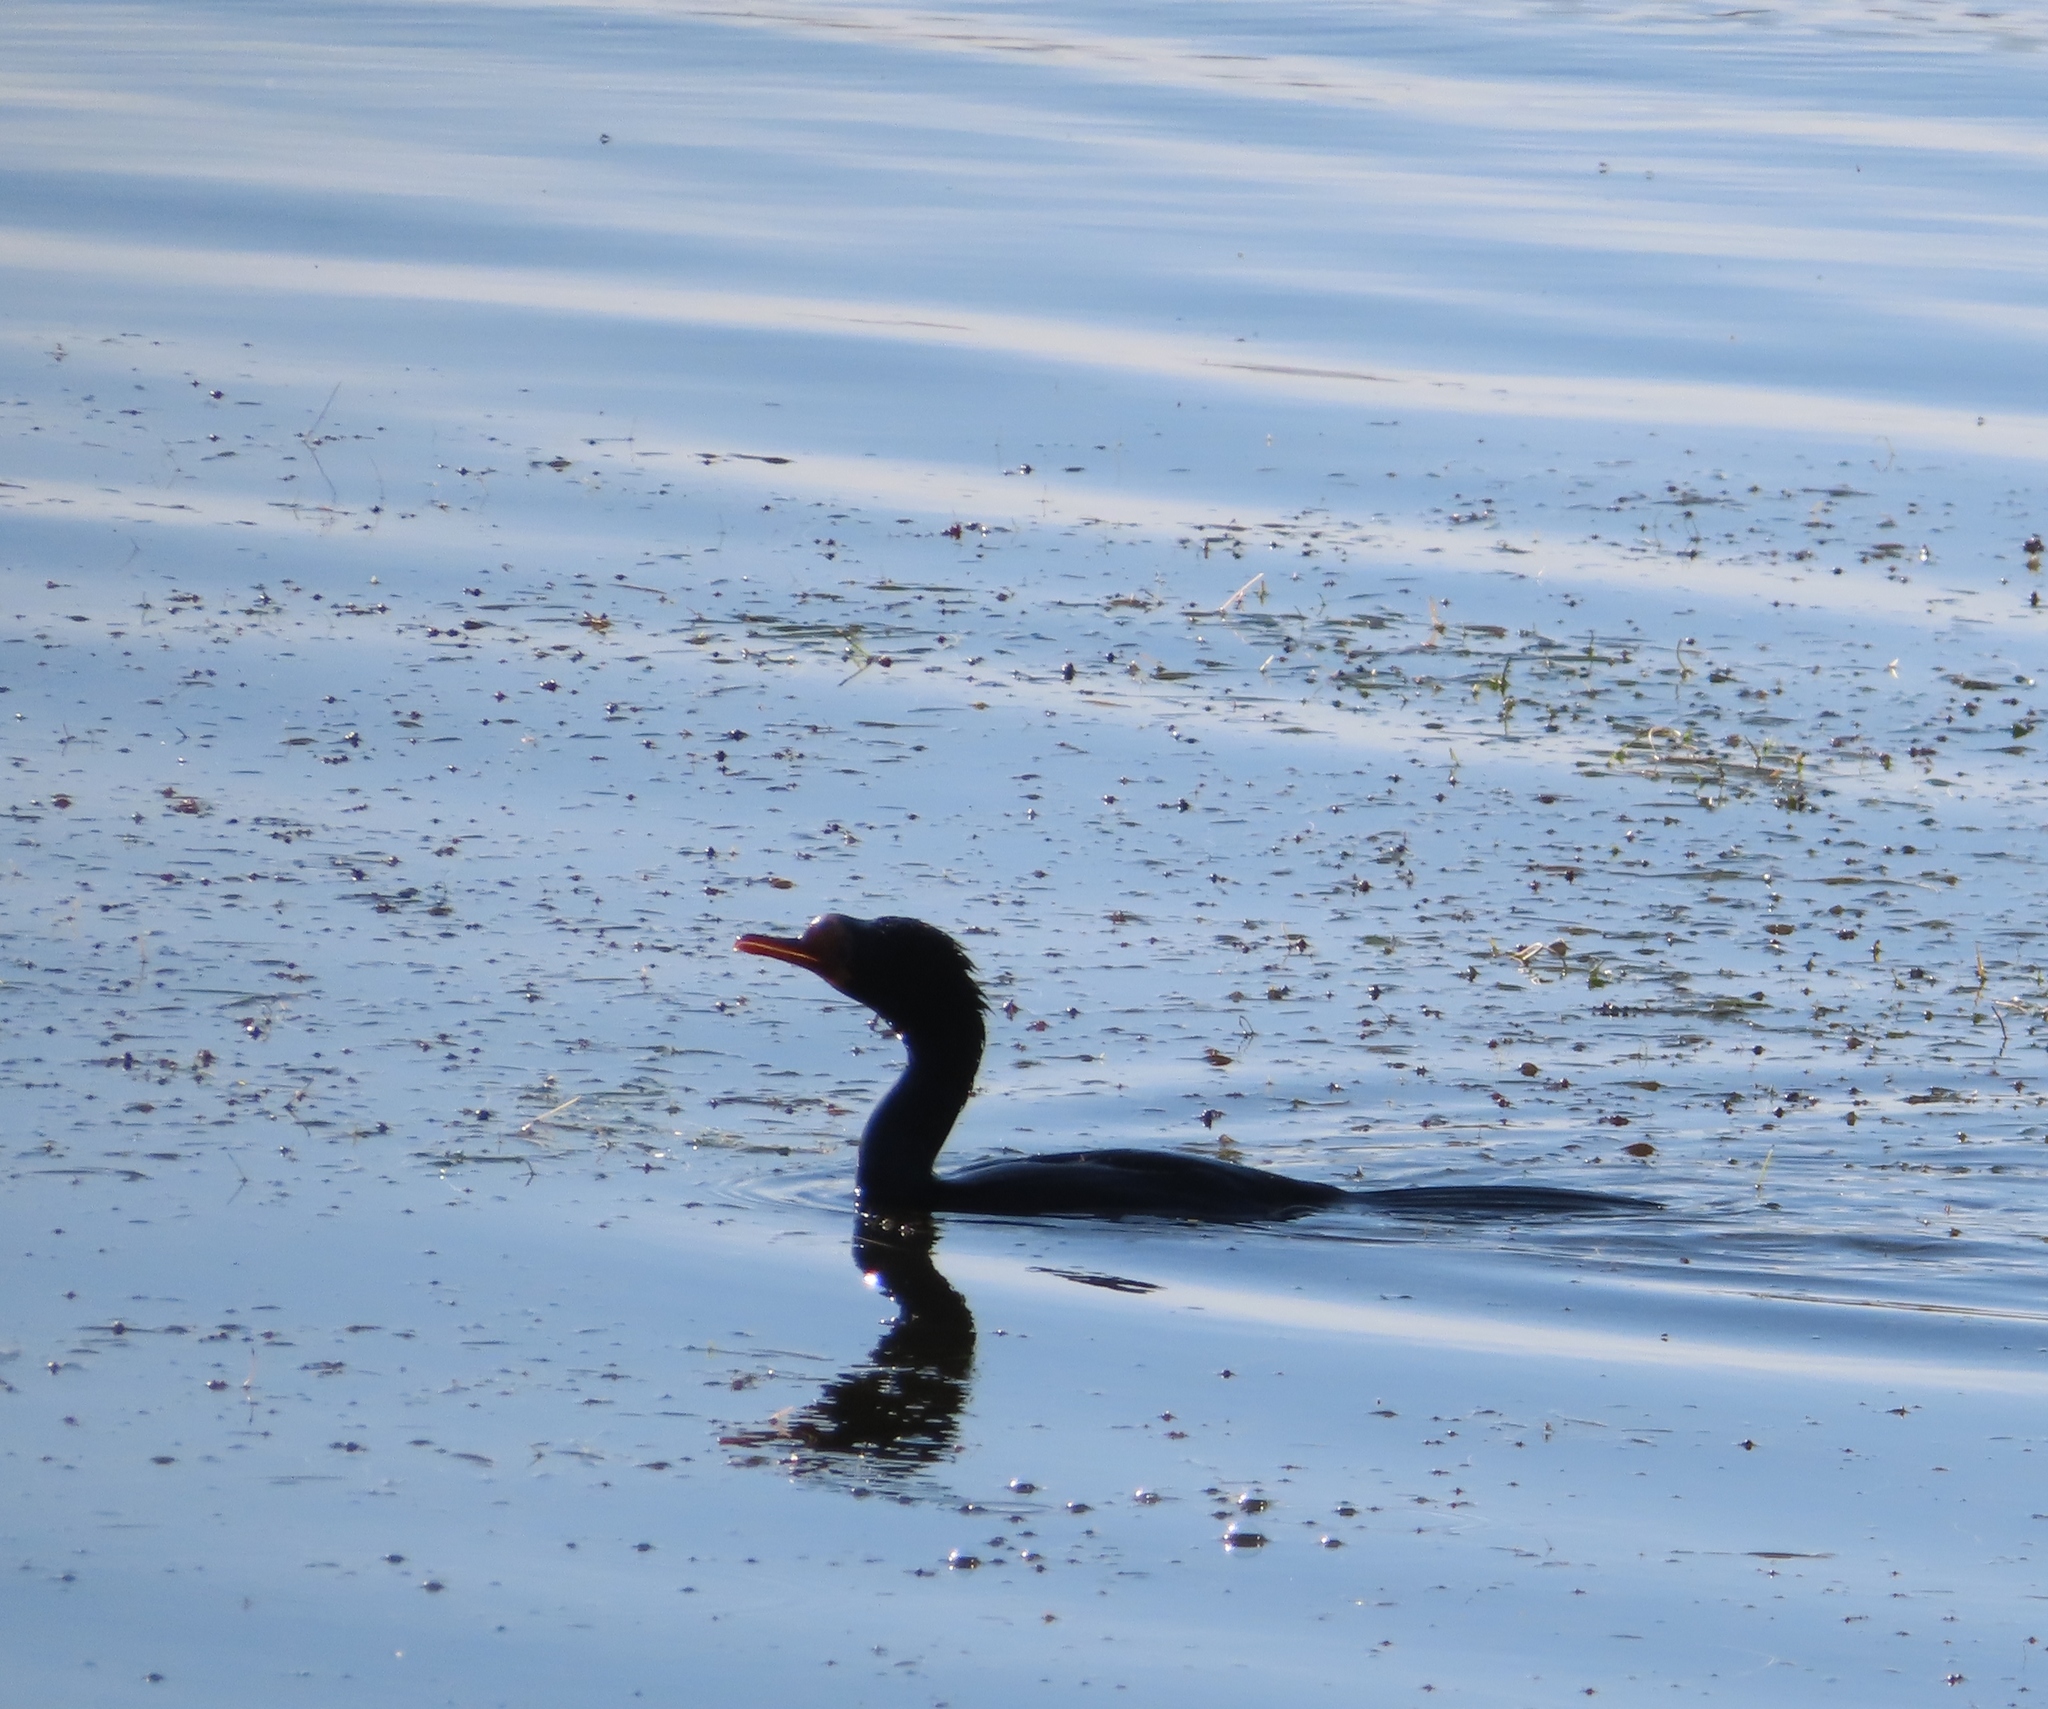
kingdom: Animalia
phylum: Chordata
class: Aves
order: Suliformes
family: Phalacrocoracidae
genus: Microcarbo
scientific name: Microcarbo africanus
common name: Long-tailed cormorant
